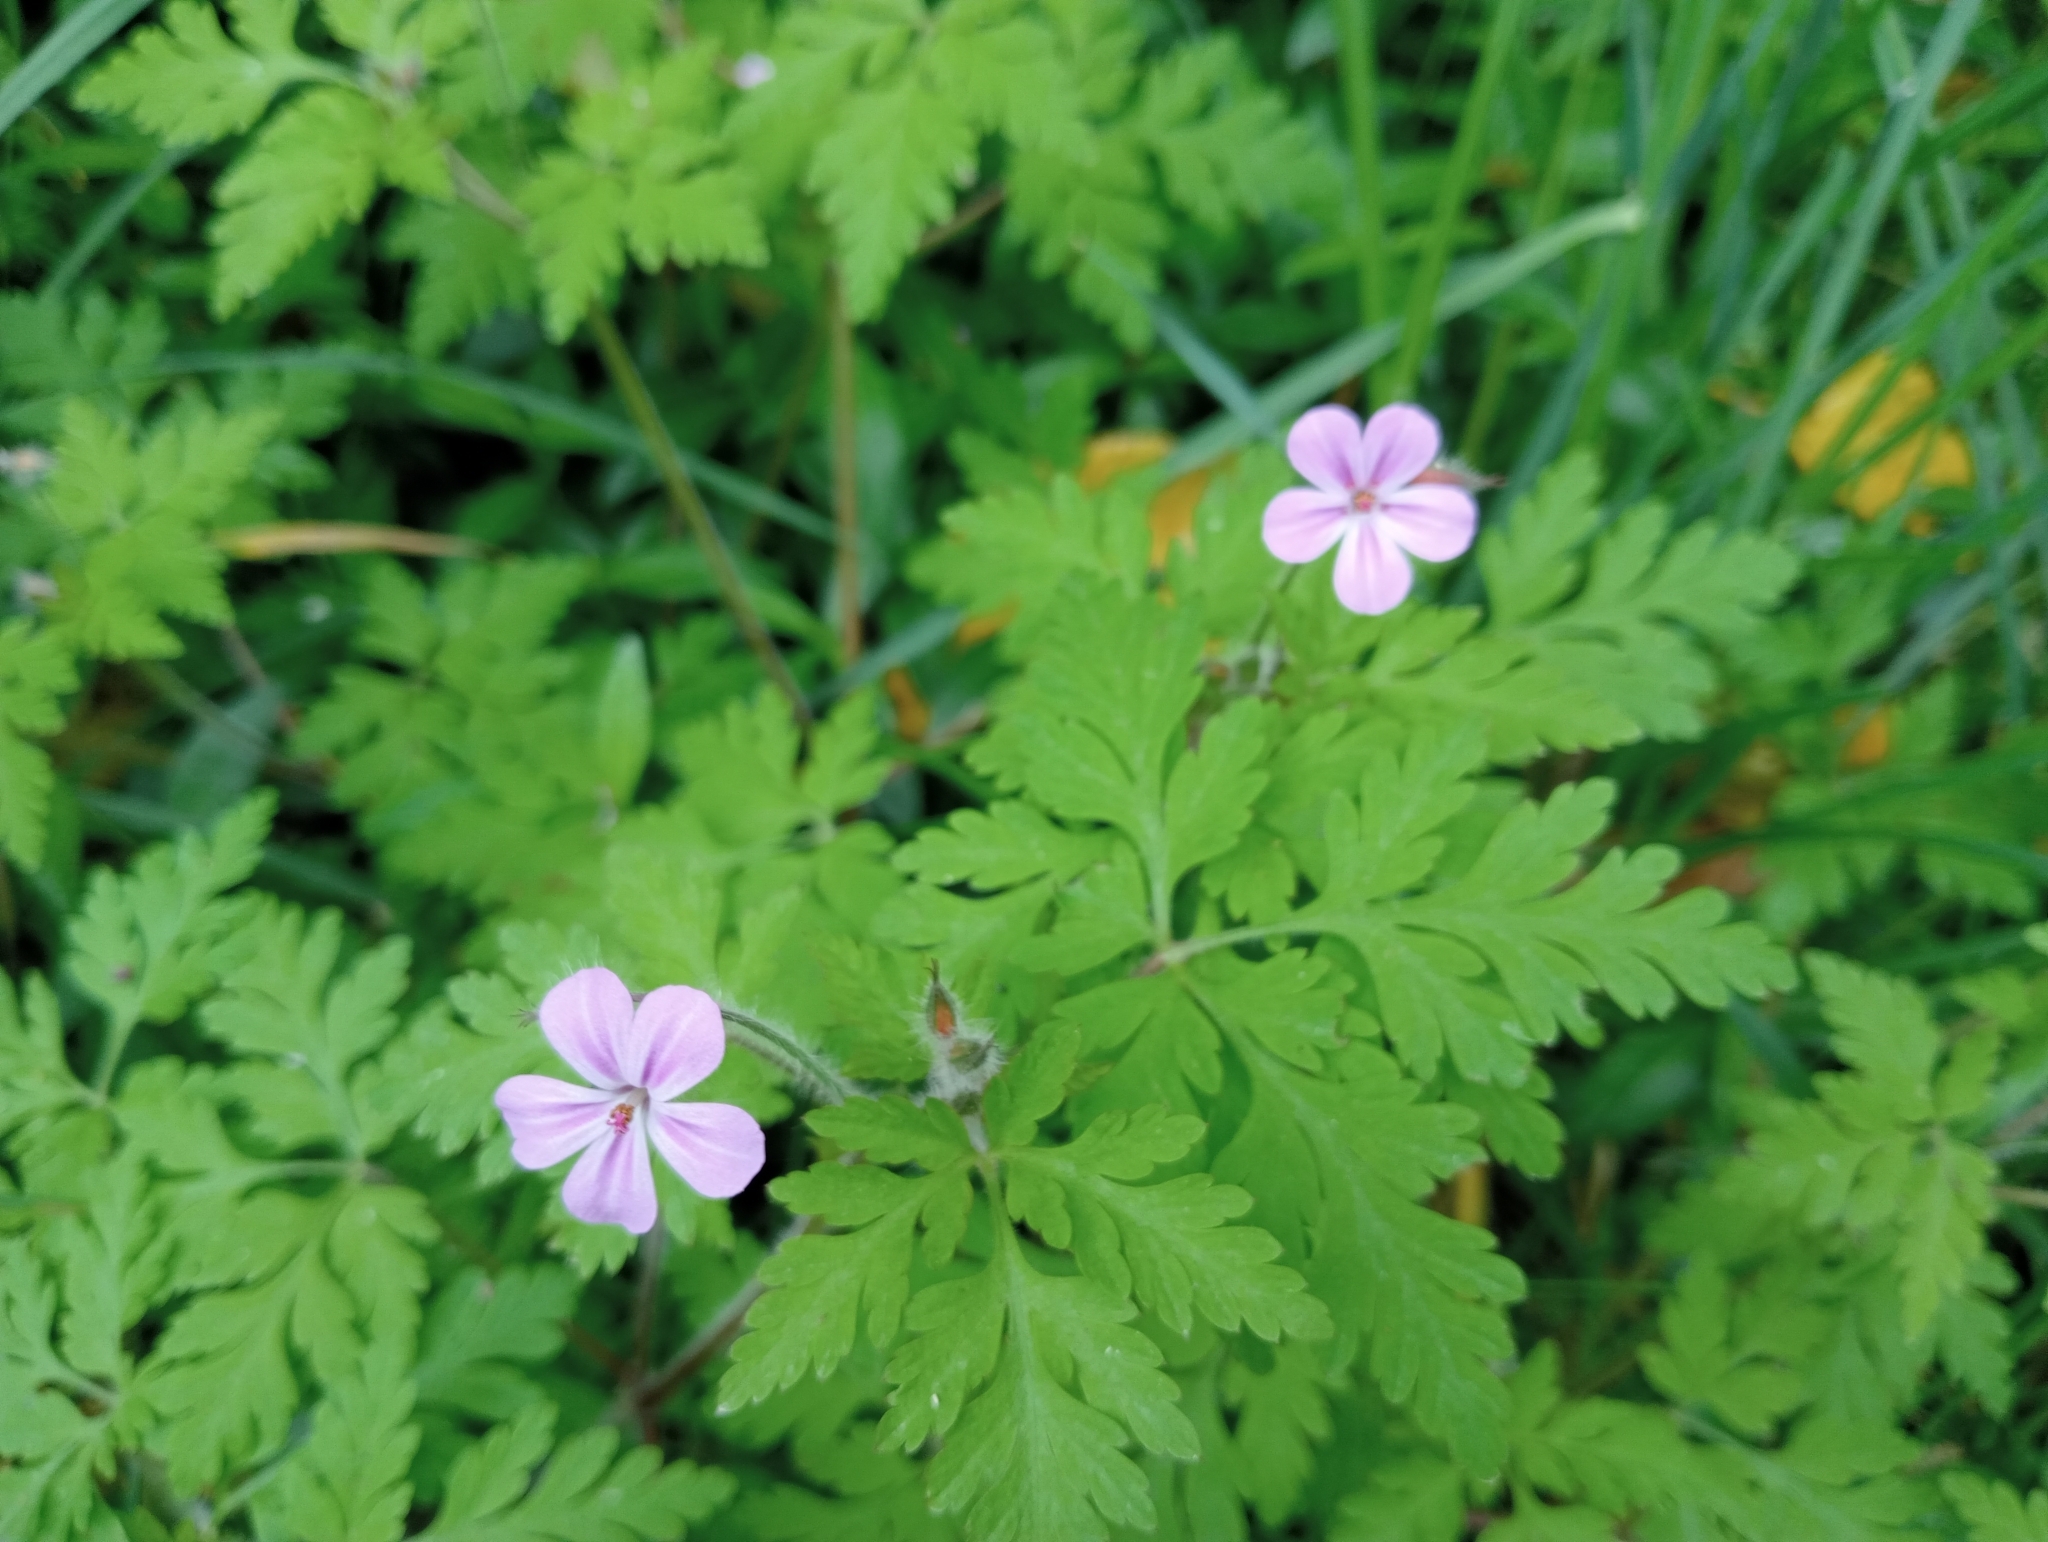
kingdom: Plantae
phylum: Tracheophyta
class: Magnoliopsida
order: Geraniales
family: Geraniaceae
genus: Geranium
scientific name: Geranium robertianum
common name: Herb-robert
